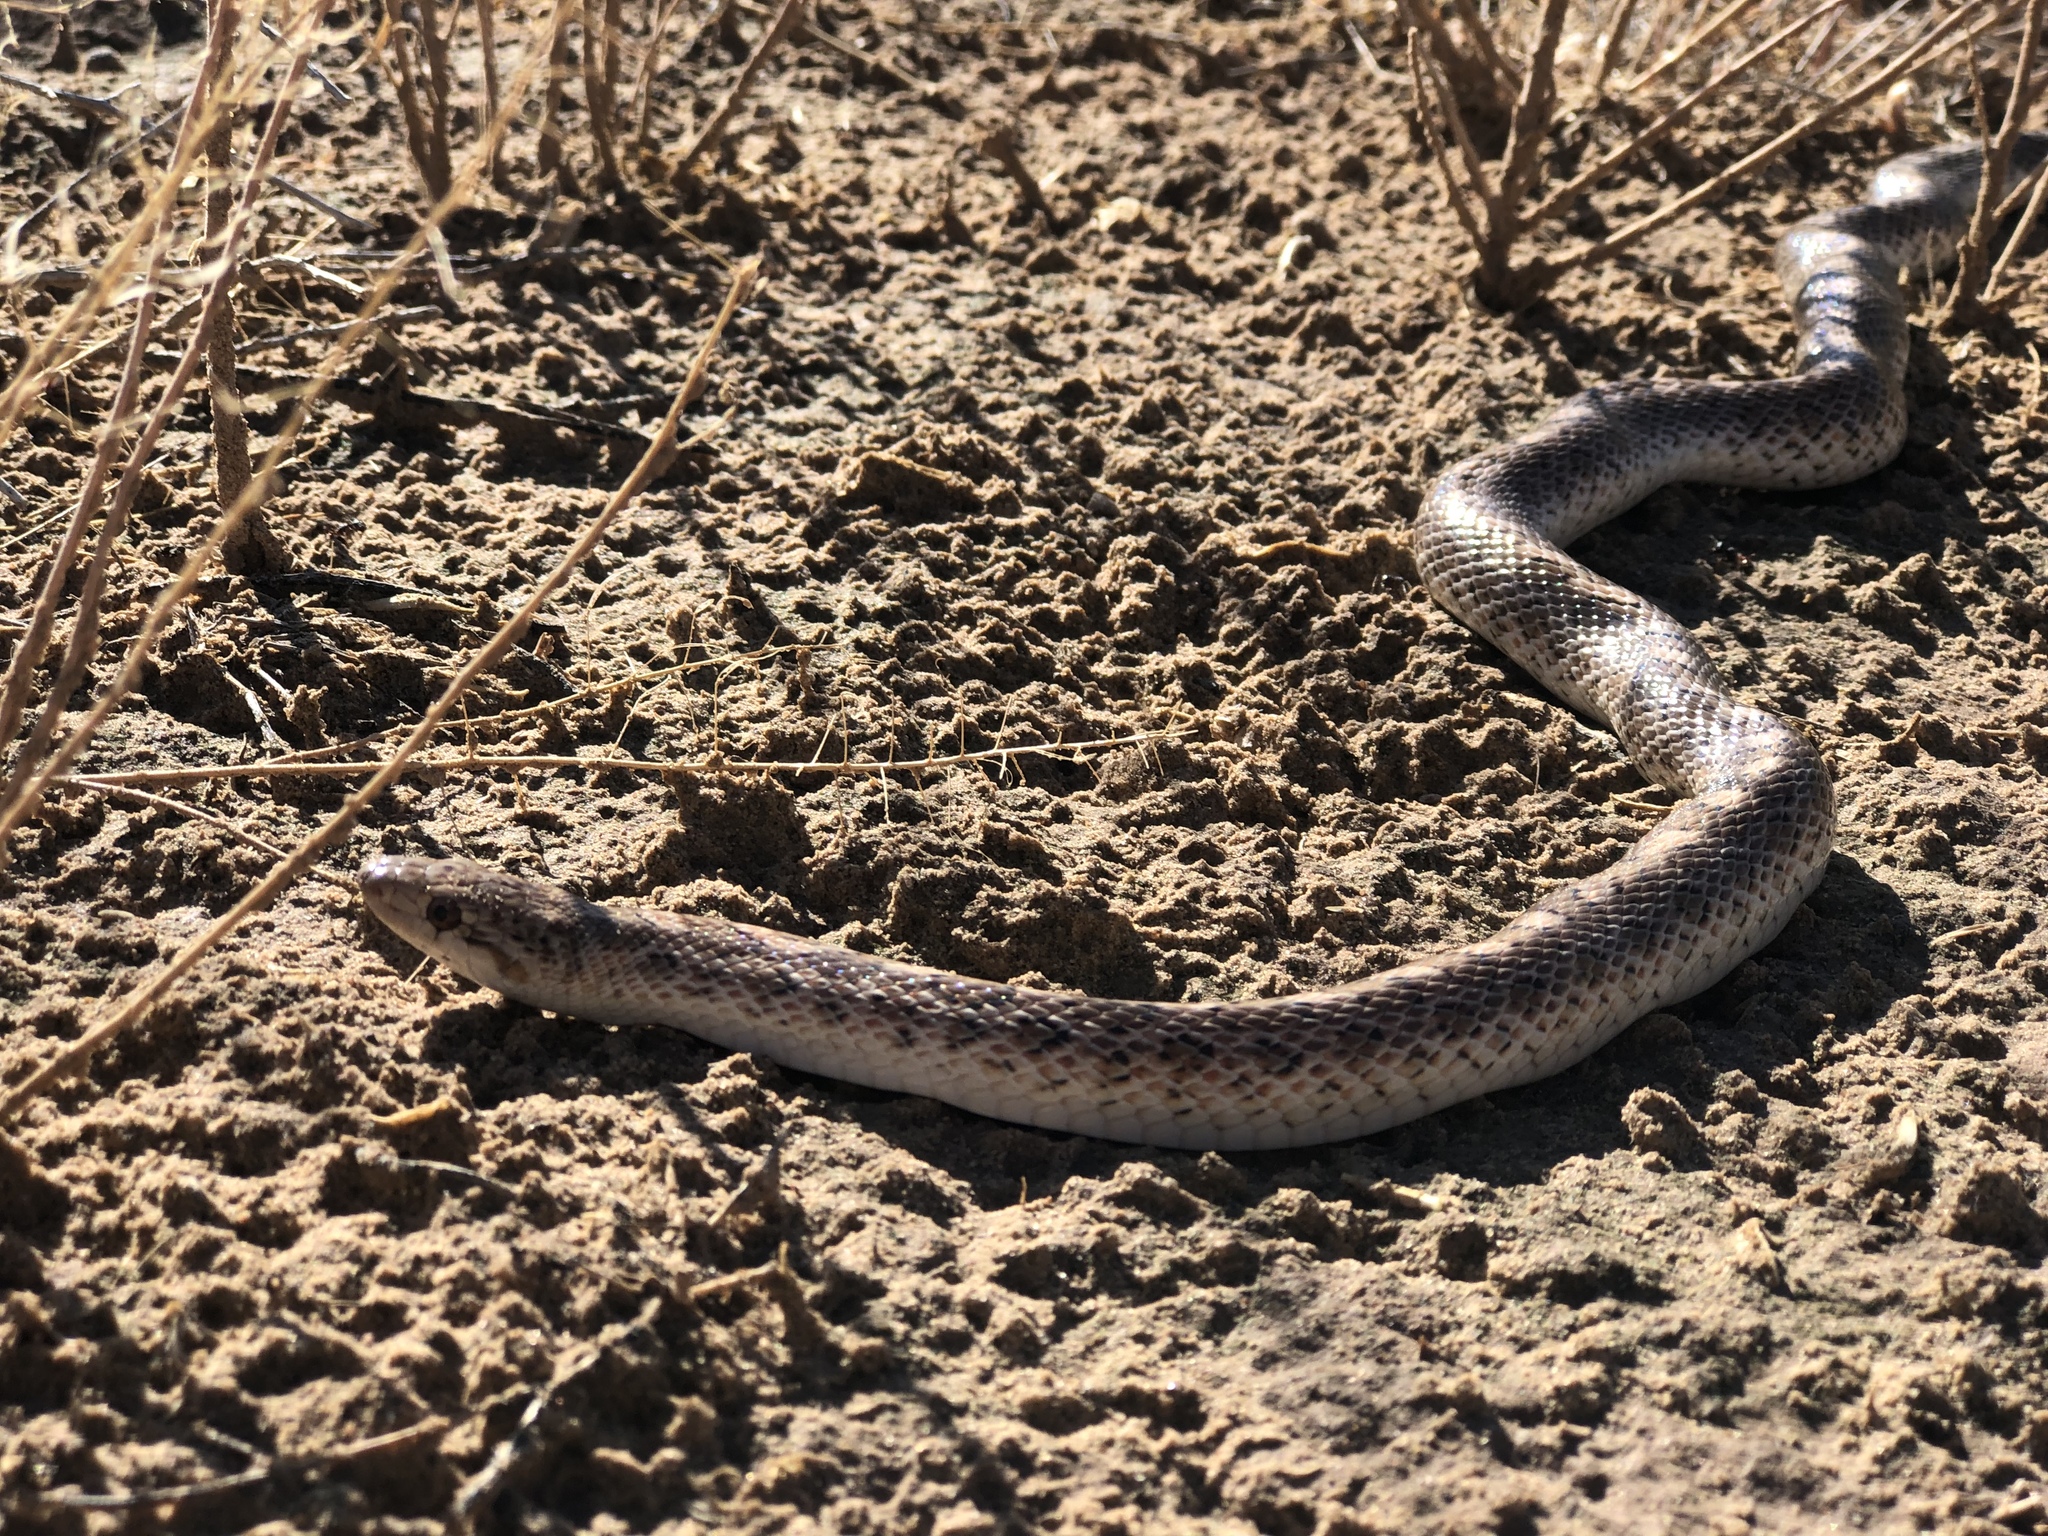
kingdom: Animalia
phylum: Chordata
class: Squamata
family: Colubridae
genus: Arizona
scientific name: Arizona elegans
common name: Glossy snake
